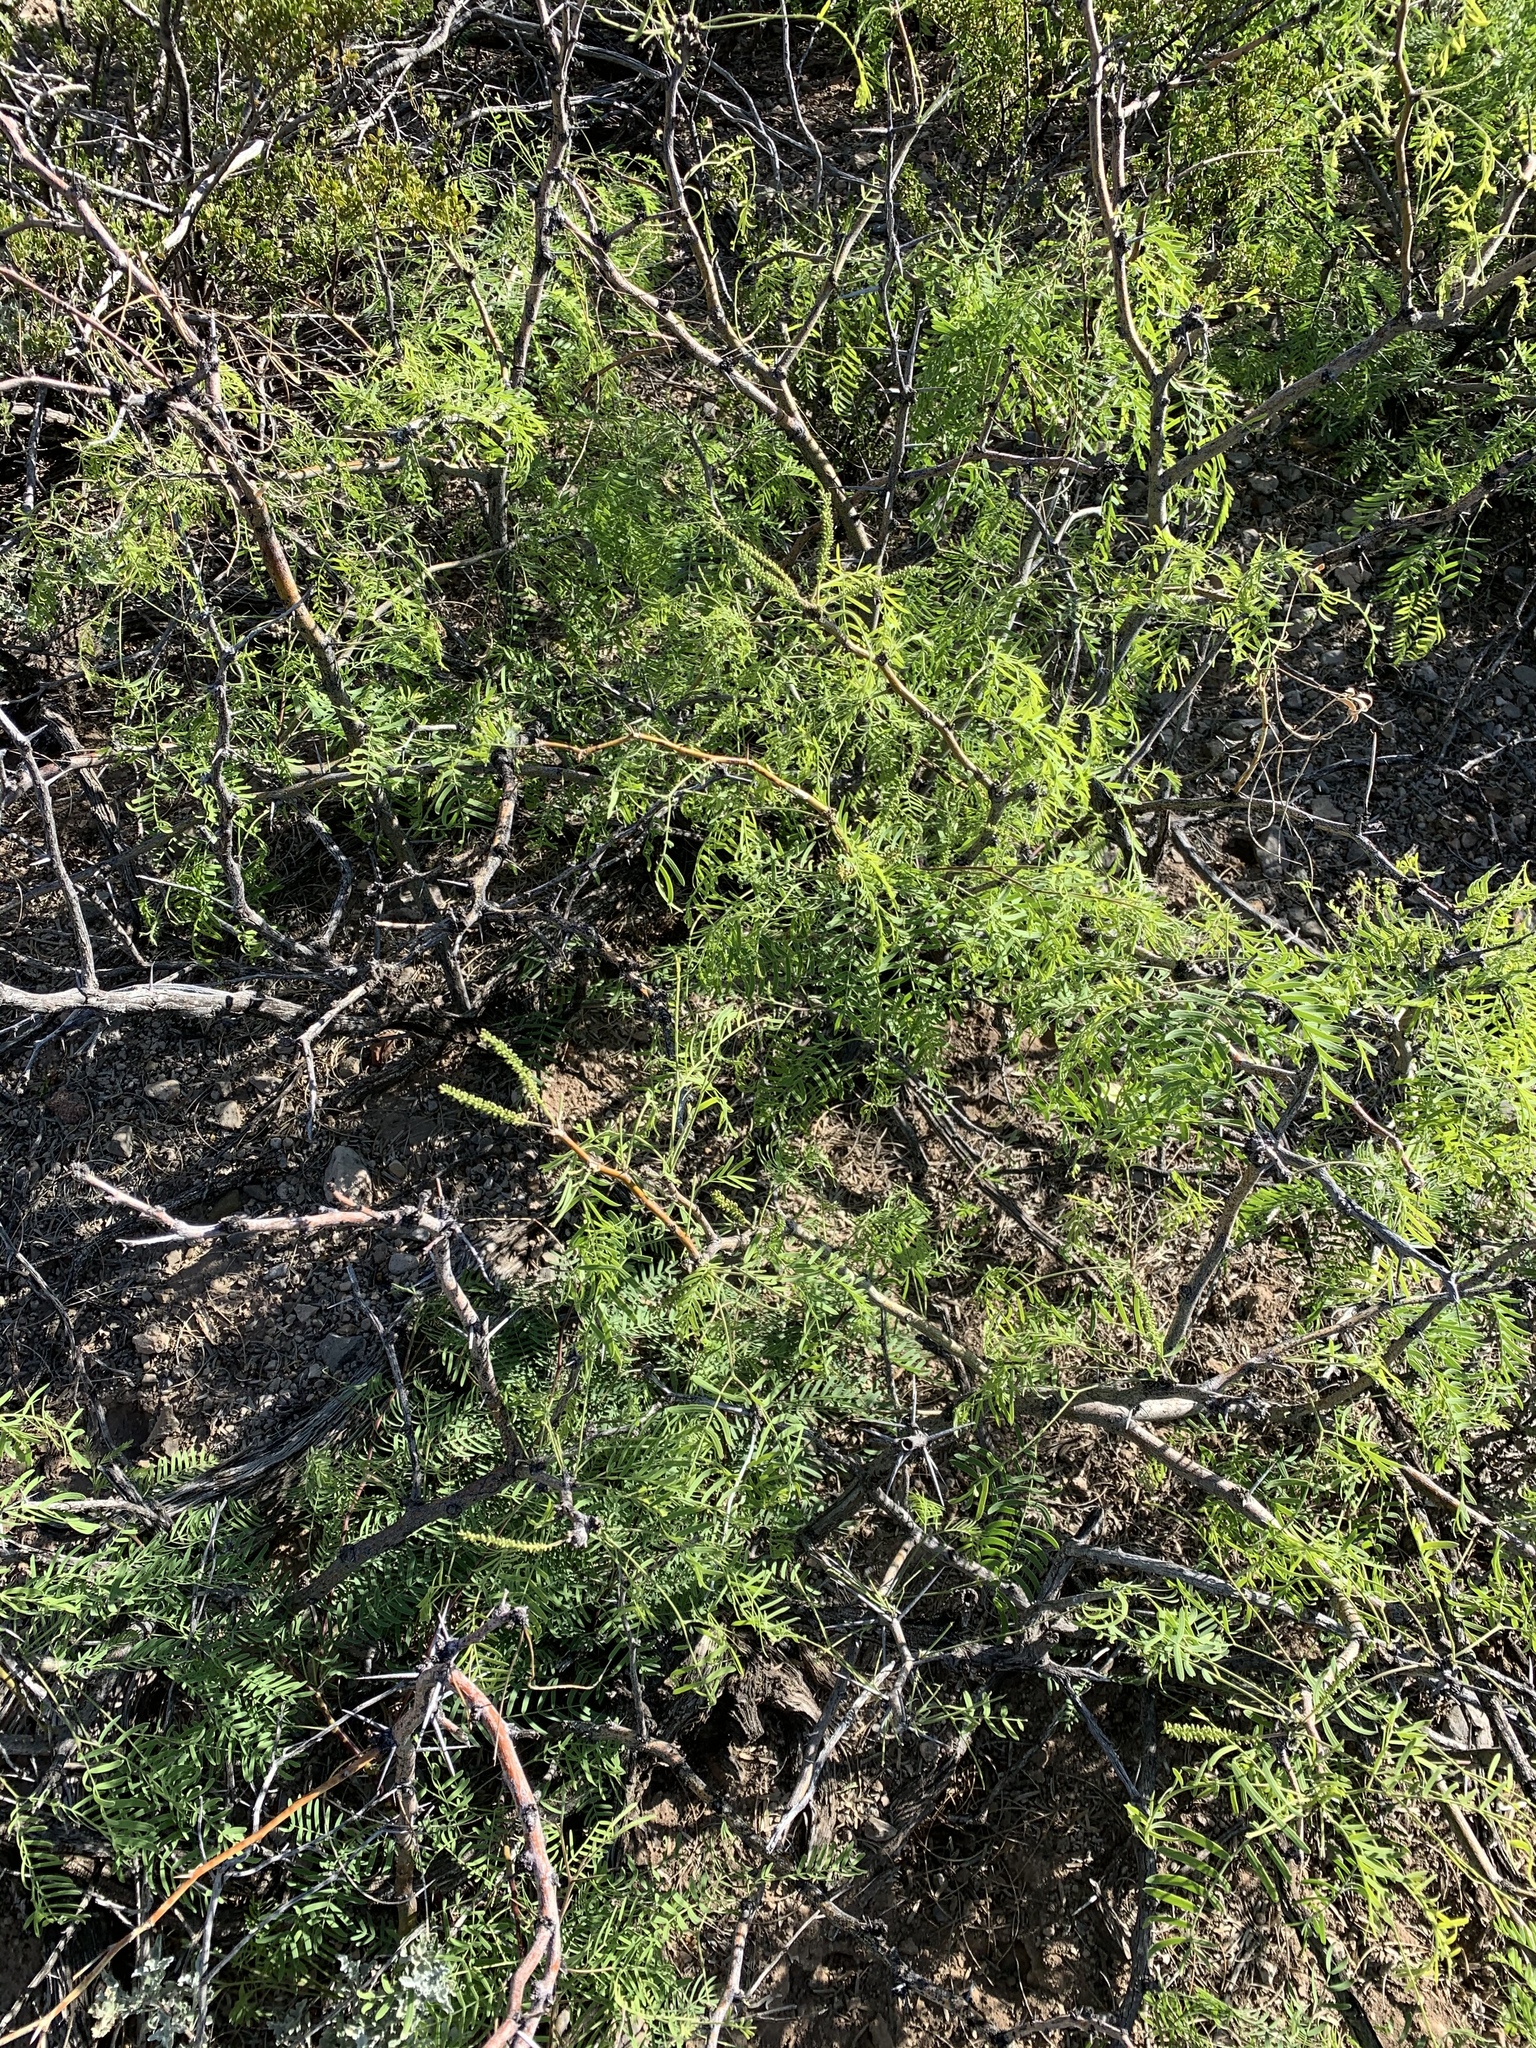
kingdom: Plantae
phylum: Tracheophyta
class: Magnoliopsida
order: Fabales
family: Fabaceae
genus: Prosopis
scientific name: Prosopis glandulosa
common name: Honey mesquite
